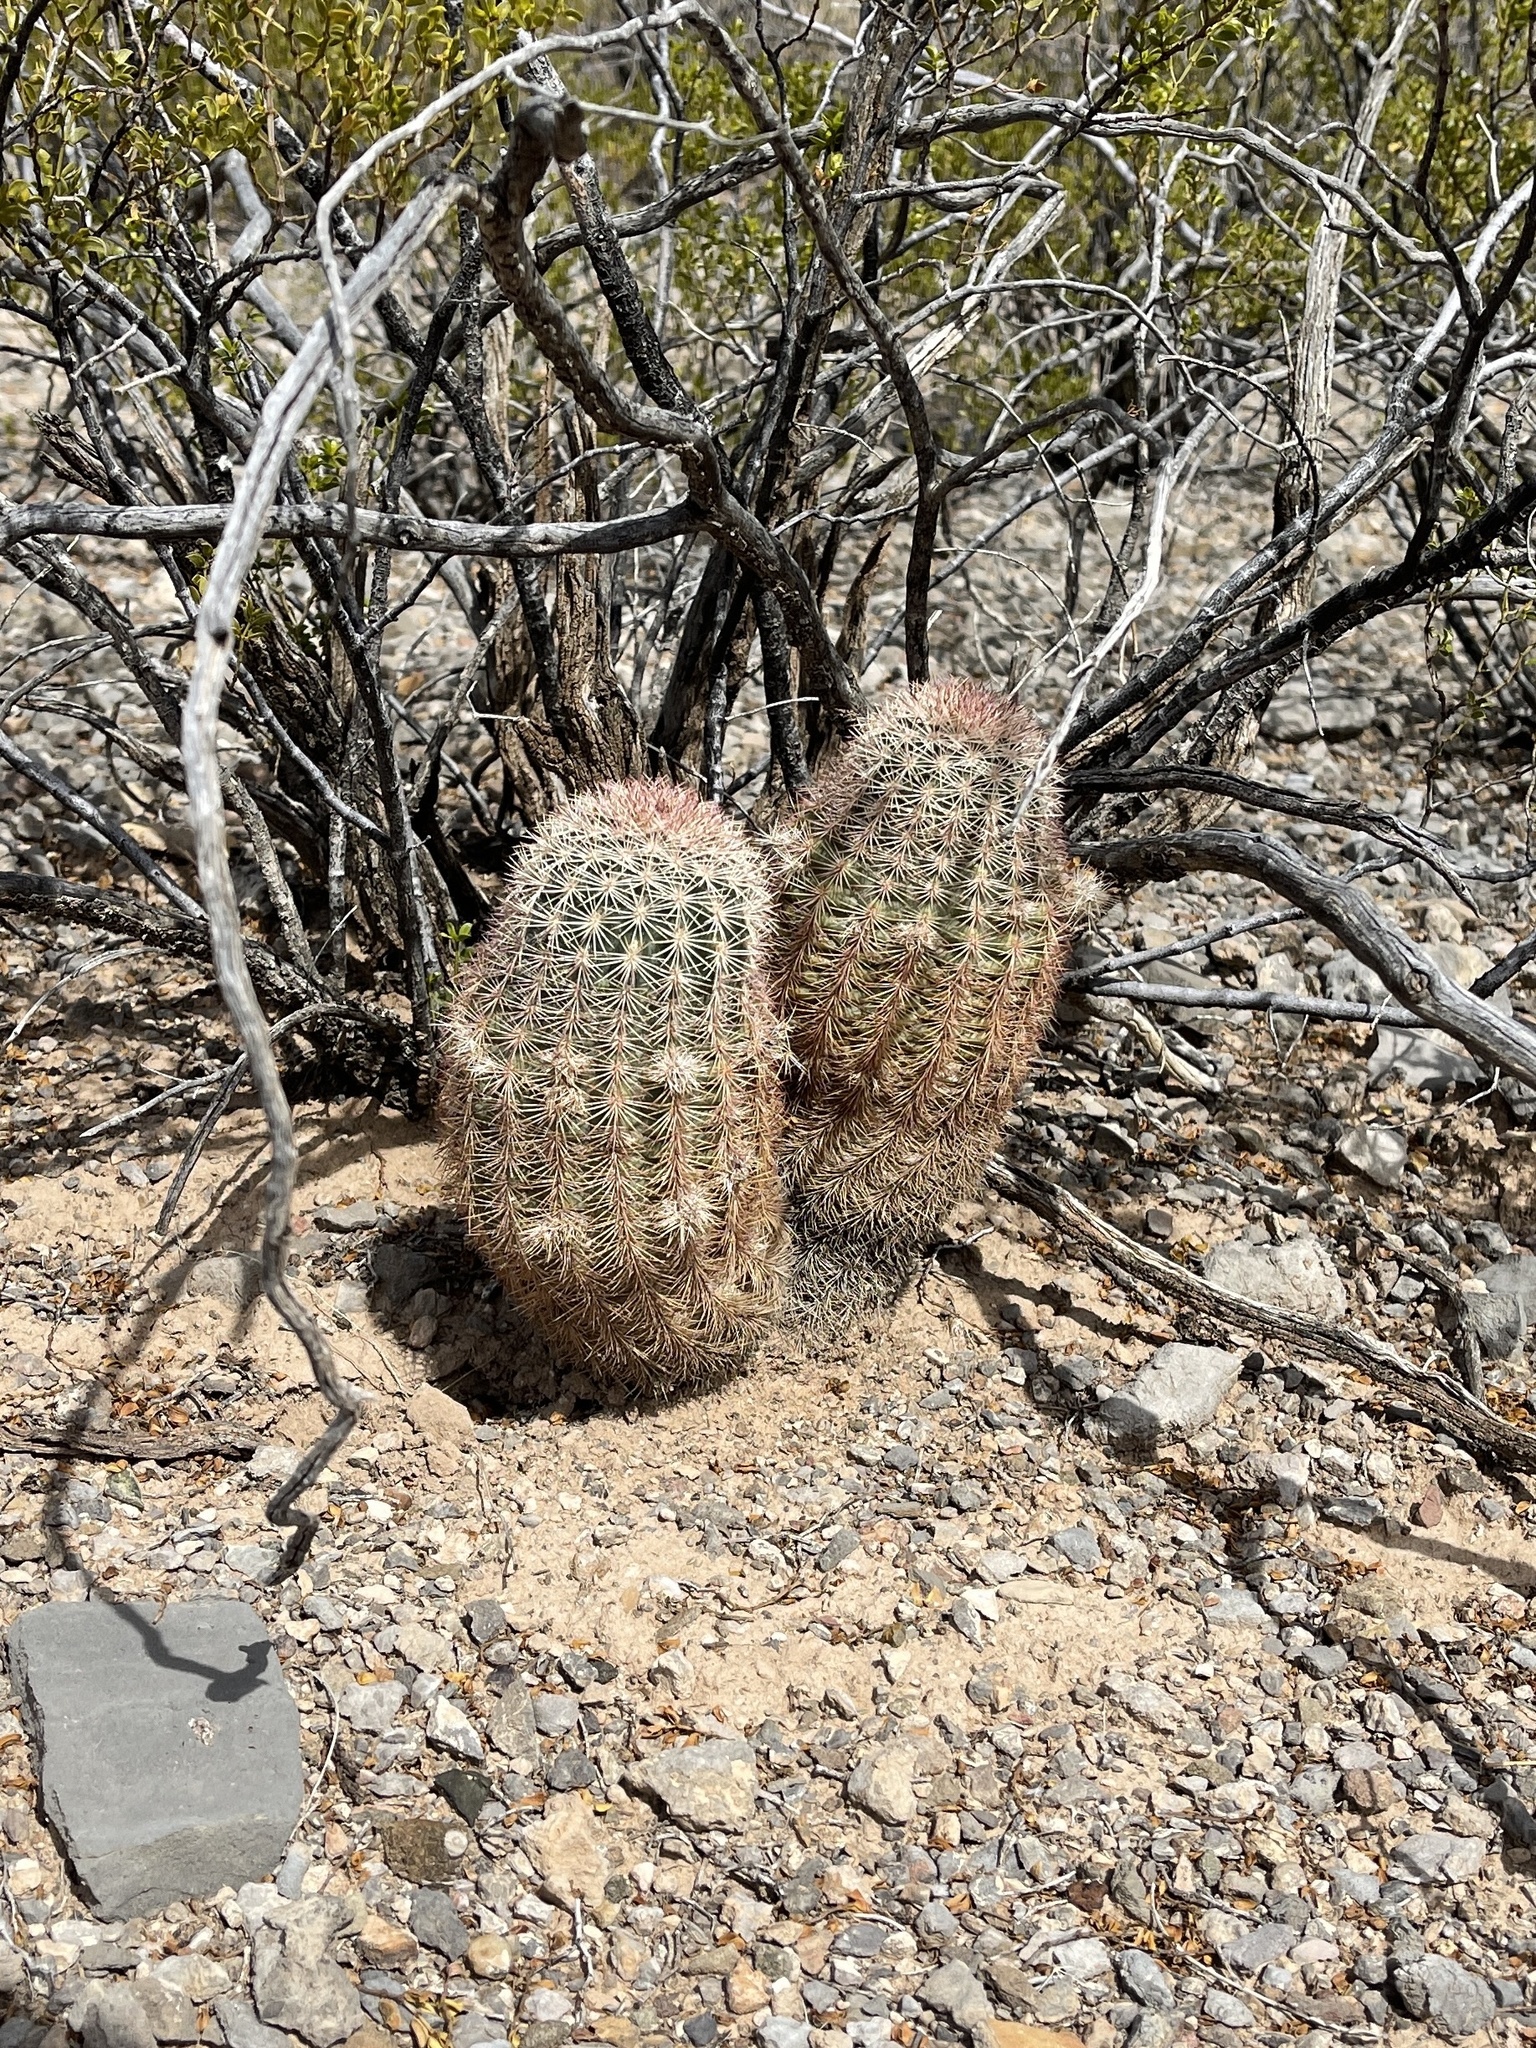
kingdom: Plantae
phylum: Tracheophyta
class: Magnoliopsida
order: Caryophyllales
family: Cactaceae
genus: Echinocereus
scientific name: Echinocereus dasyacanthus
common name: Spiny hedgehog cactus
